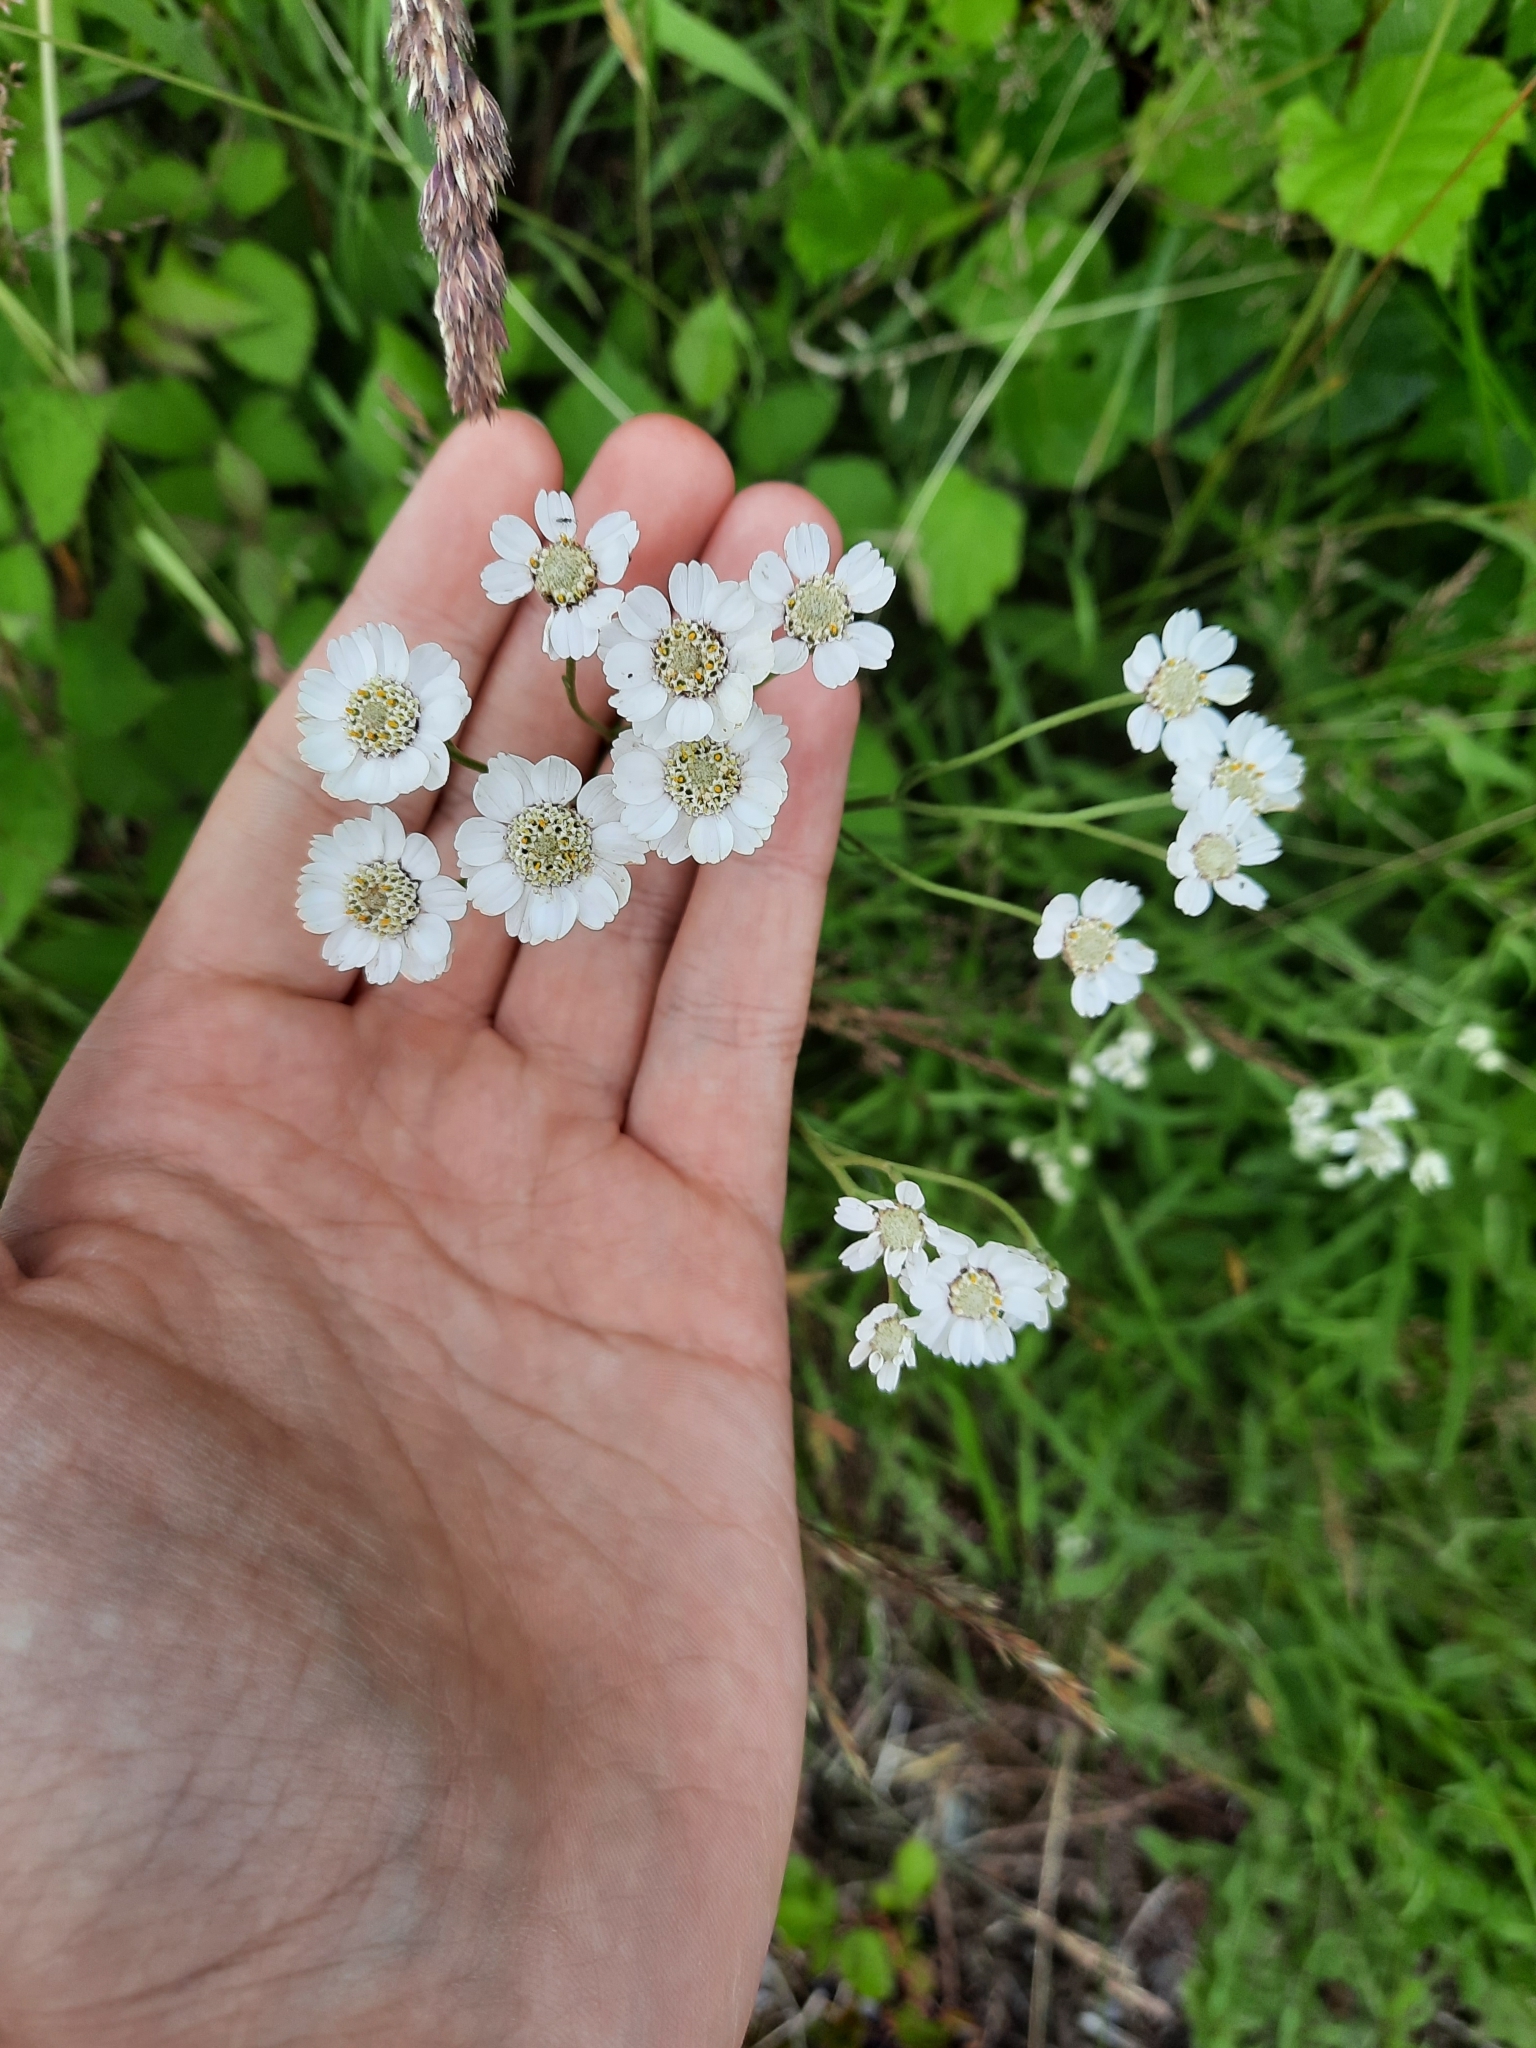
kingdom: Plantae
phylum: Tracheophyta
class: Magnoliopsida
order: Asterales
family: Asteraceae
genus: Achillea
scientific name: Achillea ptarmica
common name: Sneezeweed
